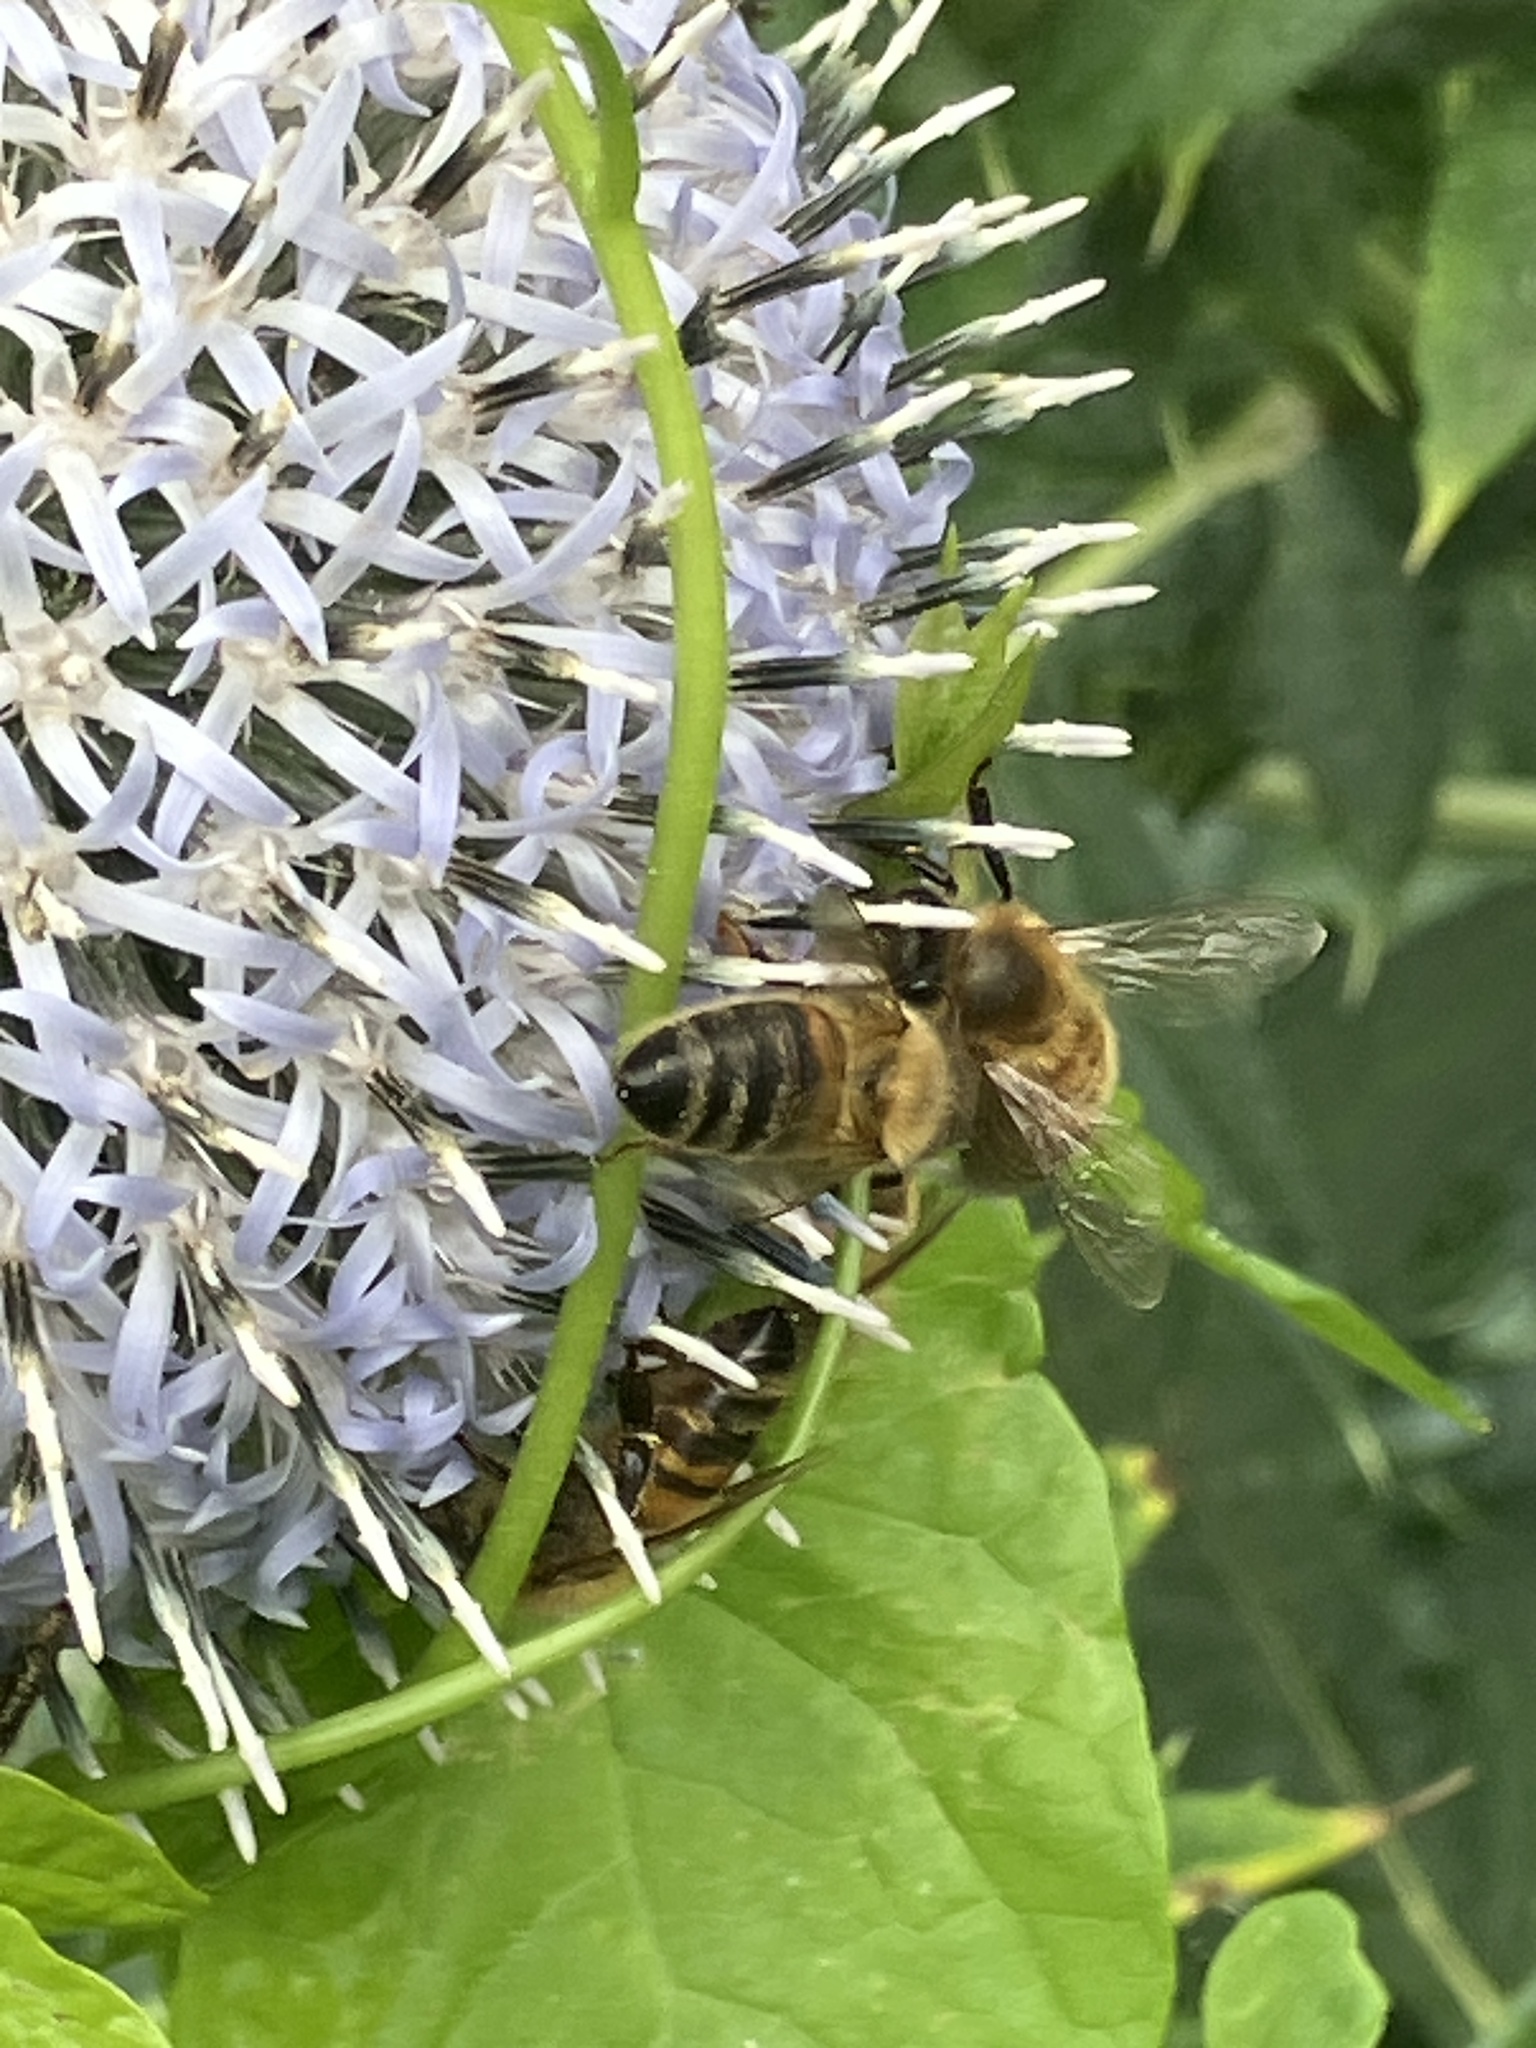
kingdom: Animalia
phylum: Arthropoda
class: Insecta
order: Hymenoptera
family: Apidae
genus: Apis
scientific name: Apis mellifera
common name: Honey bee
